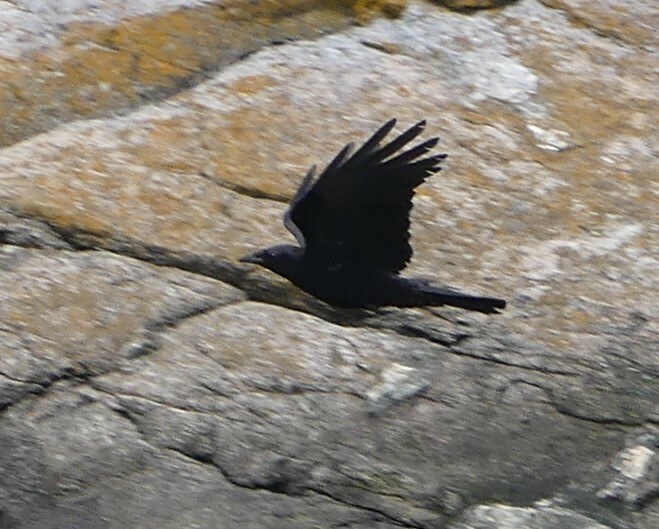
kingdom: Animalia
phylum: Chordata
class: Aves
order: Passeriformes
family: Corvidae
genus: Corvus
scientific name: Corvus brachyrhynchos
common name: American crow
